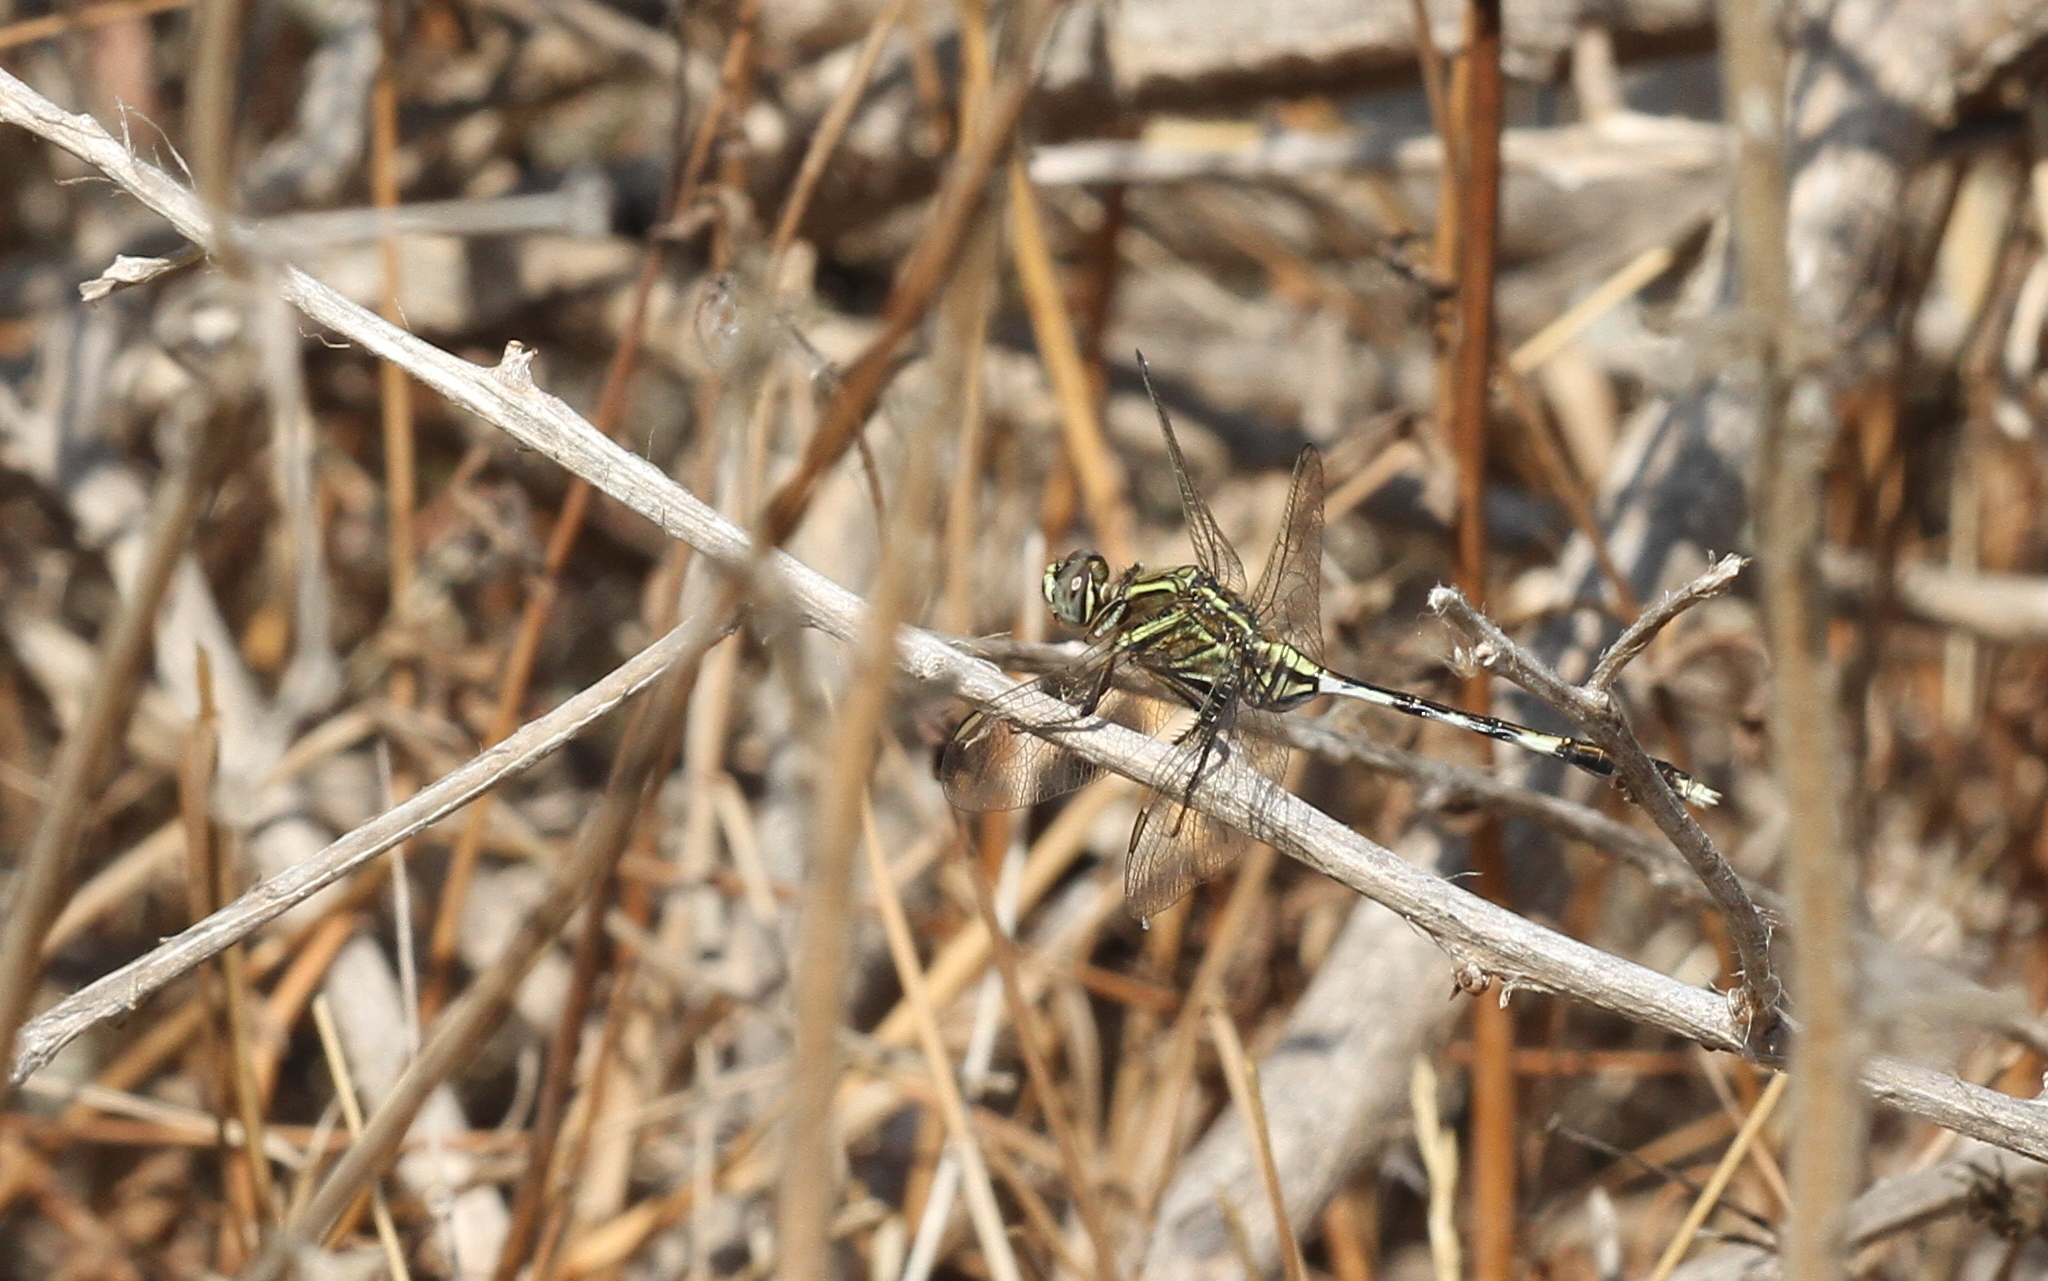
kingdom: Animalia
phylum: Arthropoda
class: Insecta
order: Odonata
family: Libellulidae
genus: Orthetrum
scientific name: Orthetrum sabina
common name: Slender skimmer
